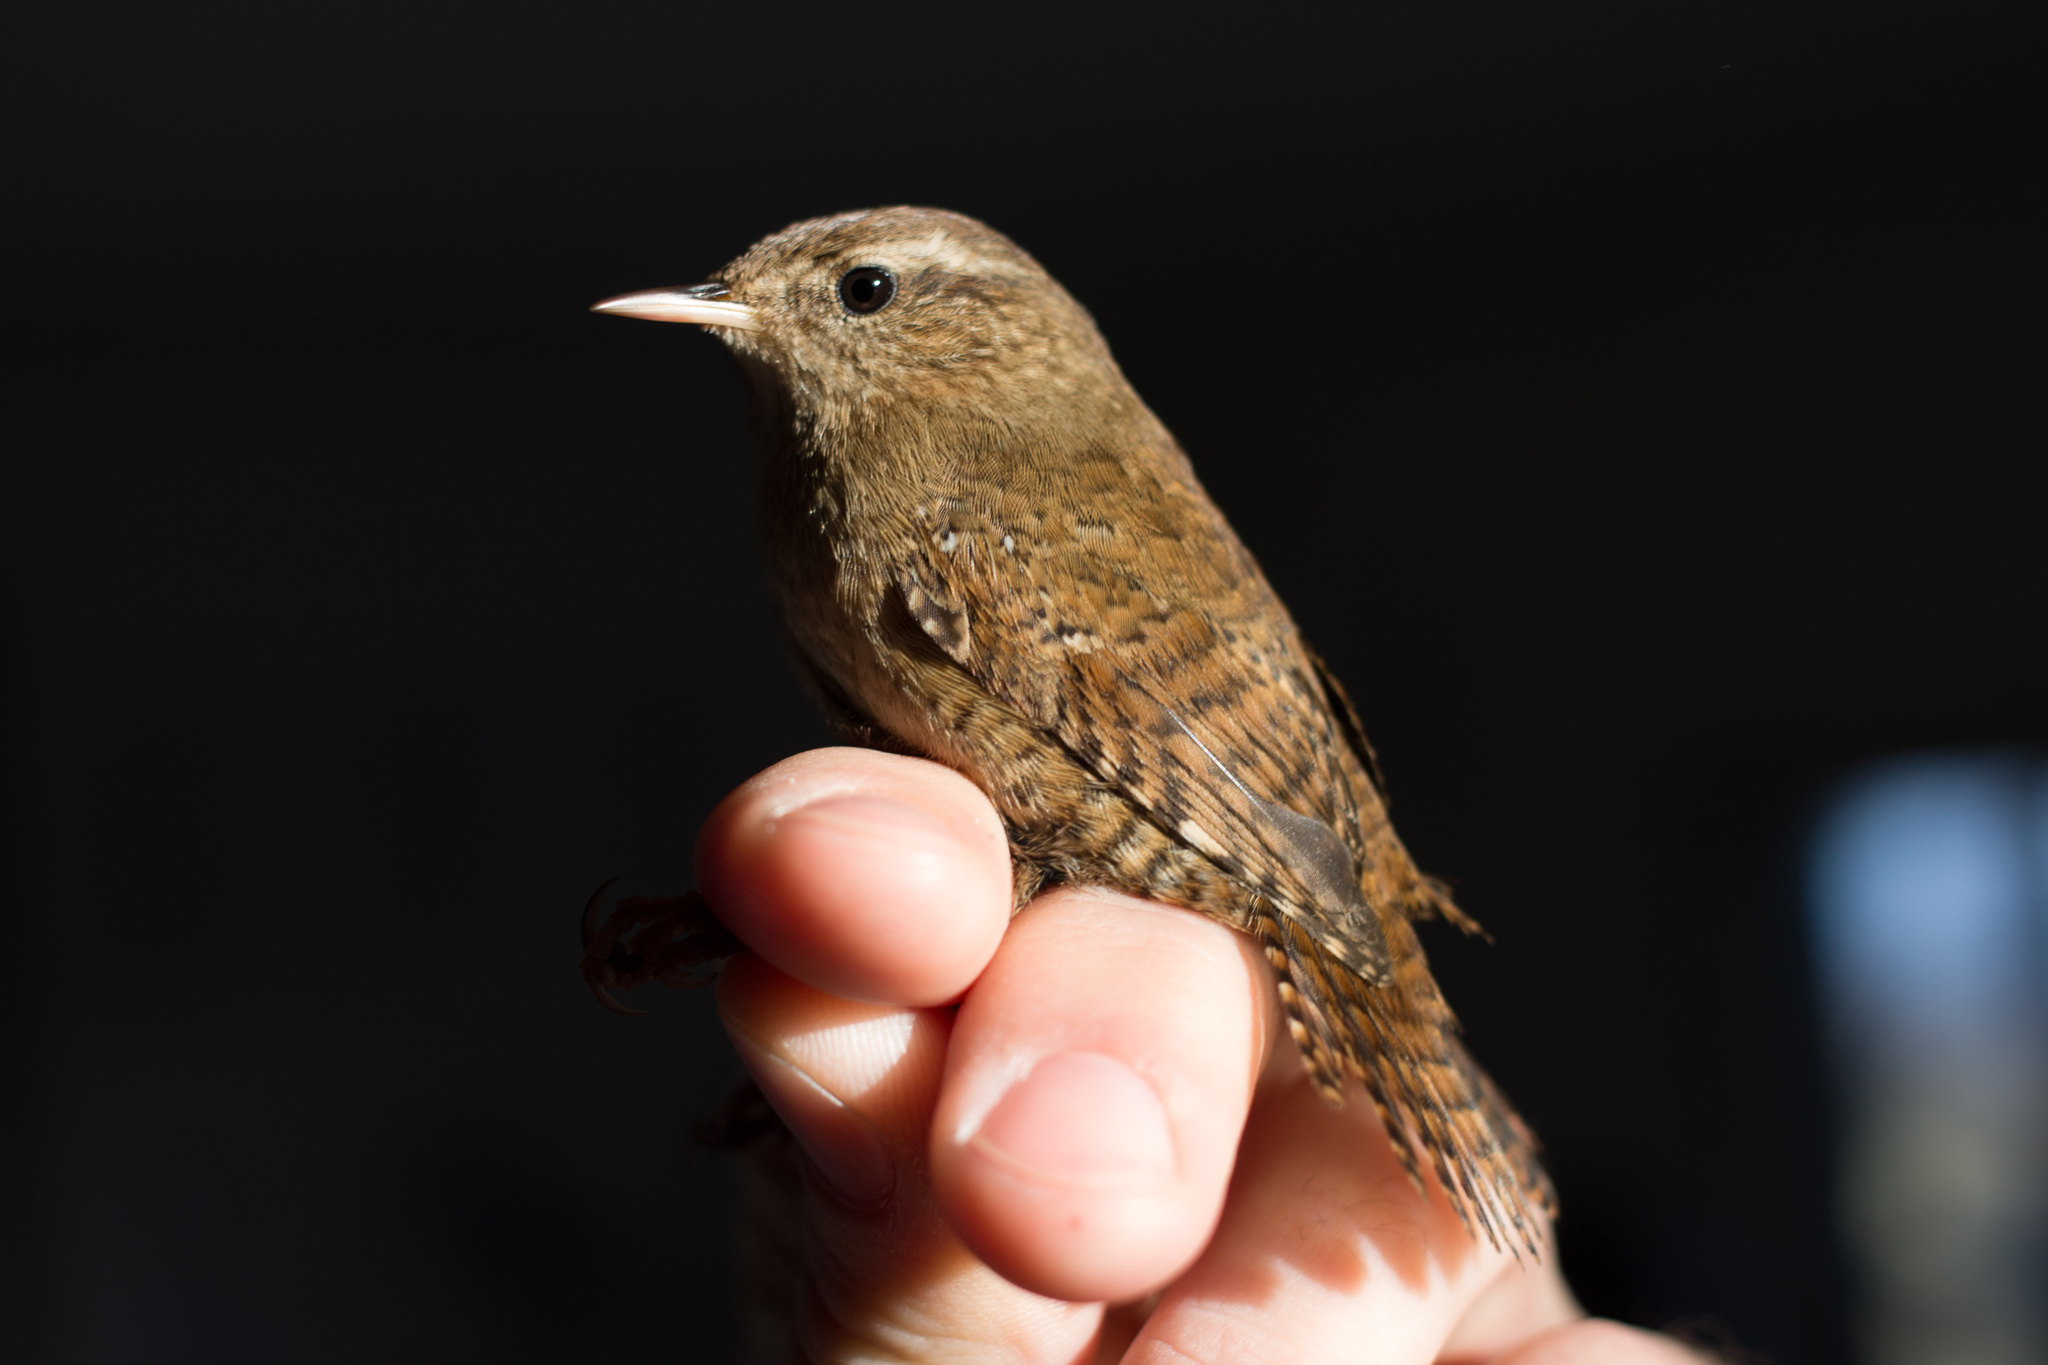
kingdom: Animalia
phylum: Chordata
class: Aves
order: Passeriformes
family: Troglodytidae
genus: Troglodytes
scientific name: Troglodytes troglodytes
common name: Eurasian wren
